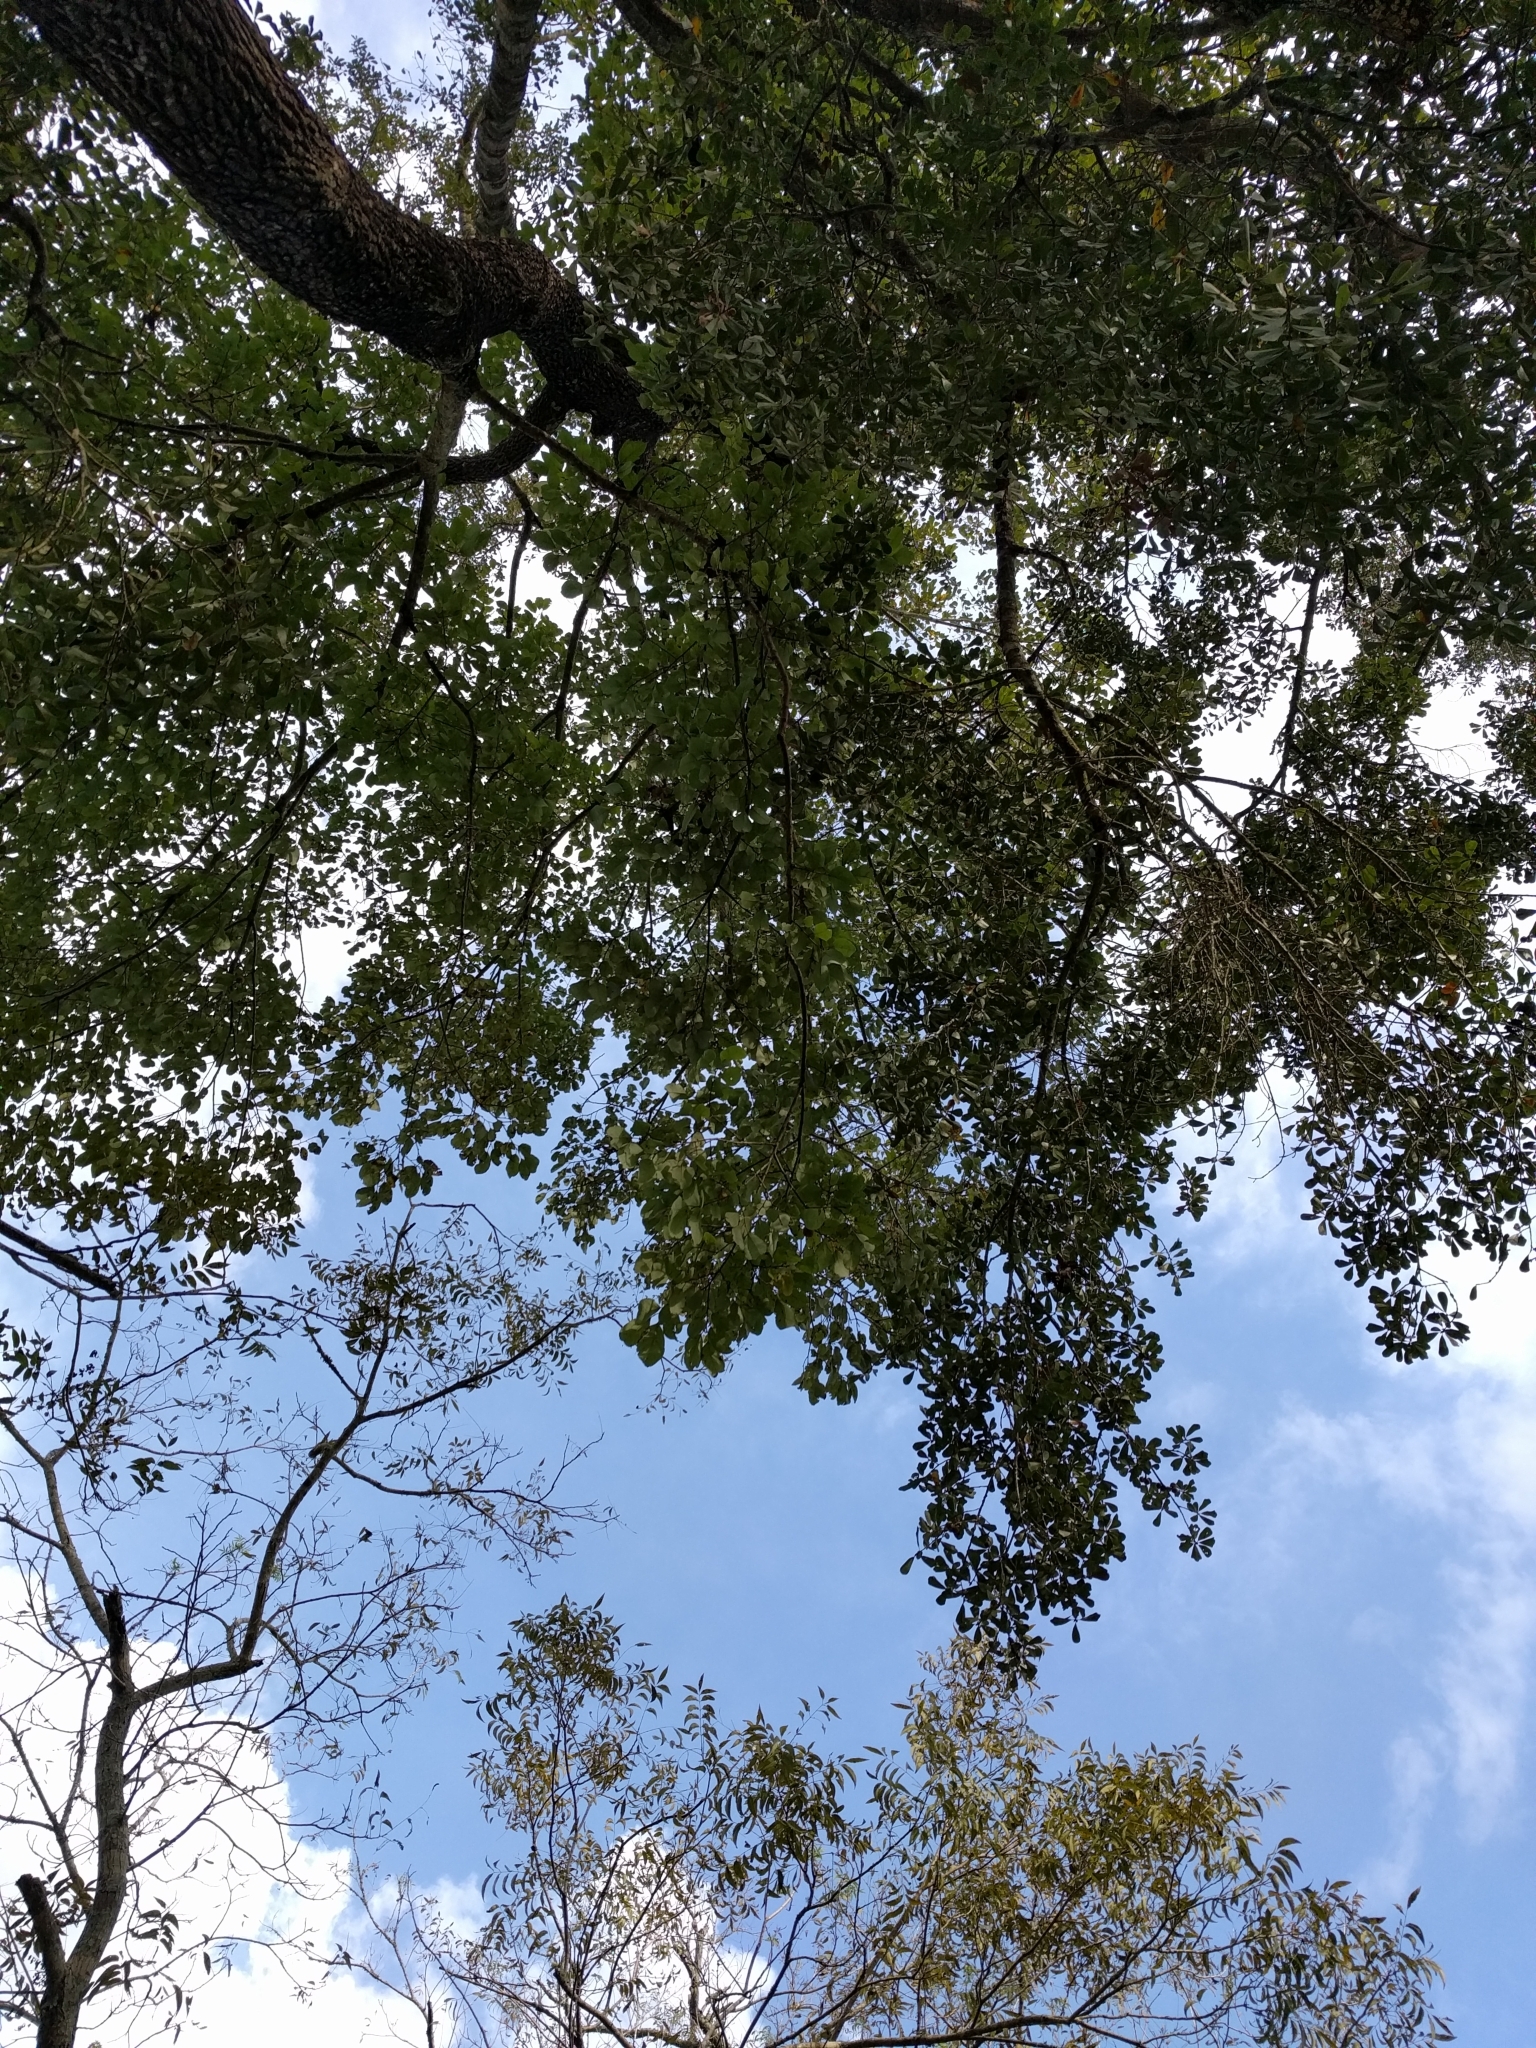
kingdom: Plantae
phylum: Tracheophyta
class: Magnoliopsida
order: Ericales
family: Ebenaceae
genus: Diospyros
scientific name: Diospyros virginiana
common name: Persimmon
